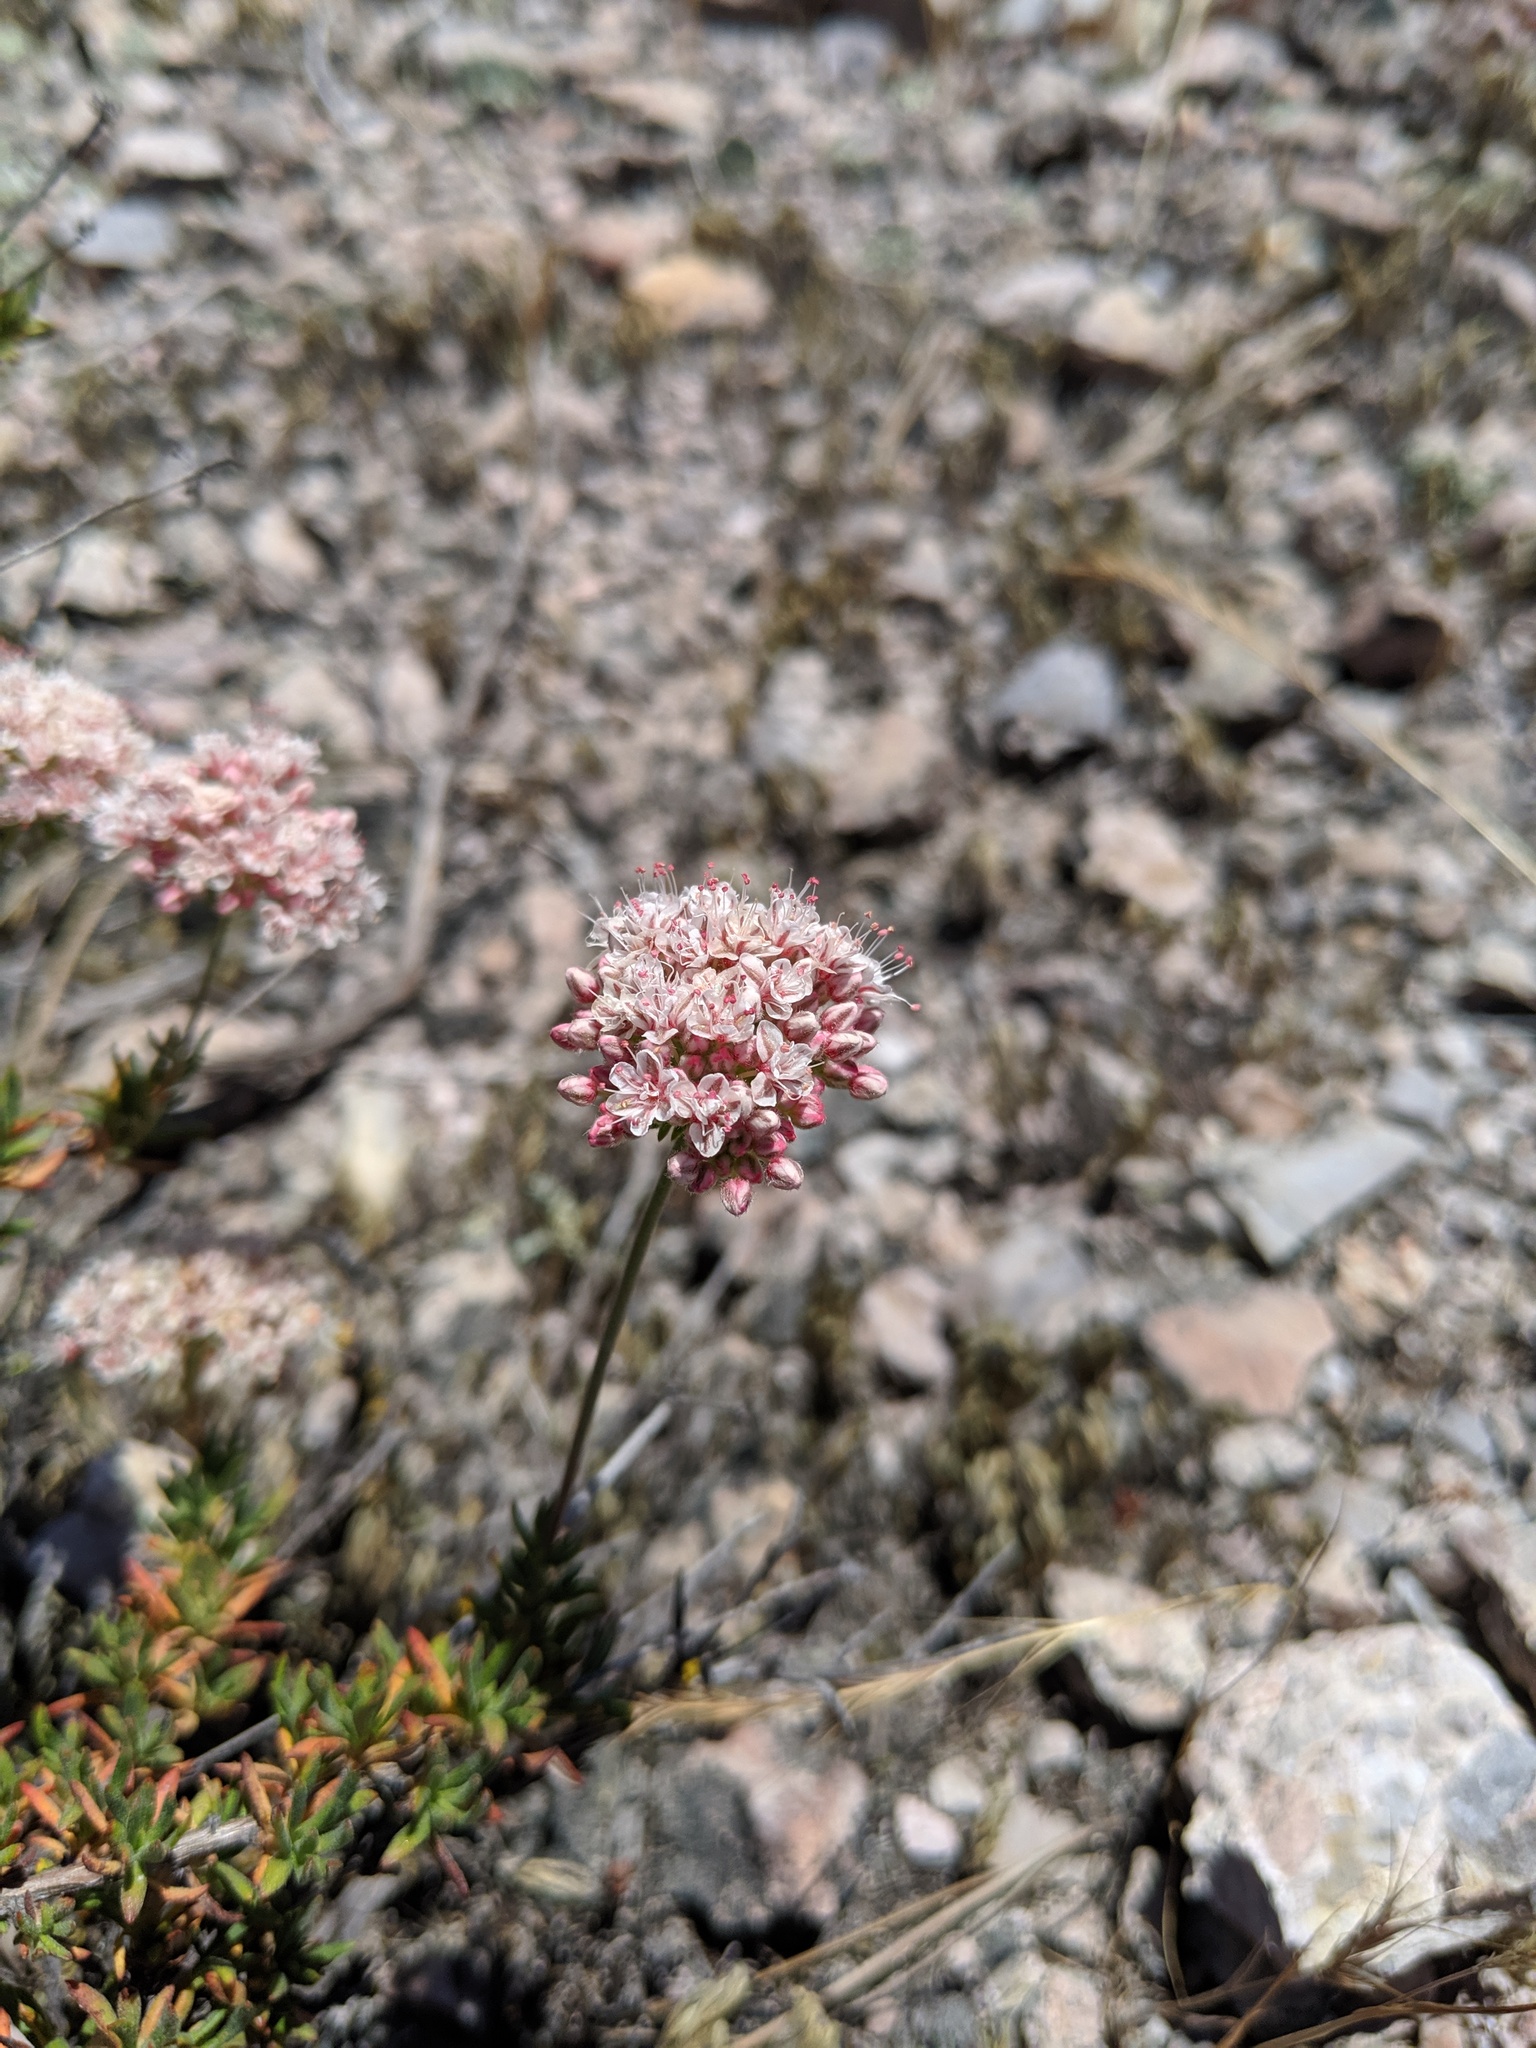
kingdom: Plantae
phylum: Tracheophyta
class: Magnoliopsida
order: Caryophyllales
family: Polygonaceae
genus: Eriogonum
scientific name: Eriogonum fasciculatum
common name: California wild buckwheat
